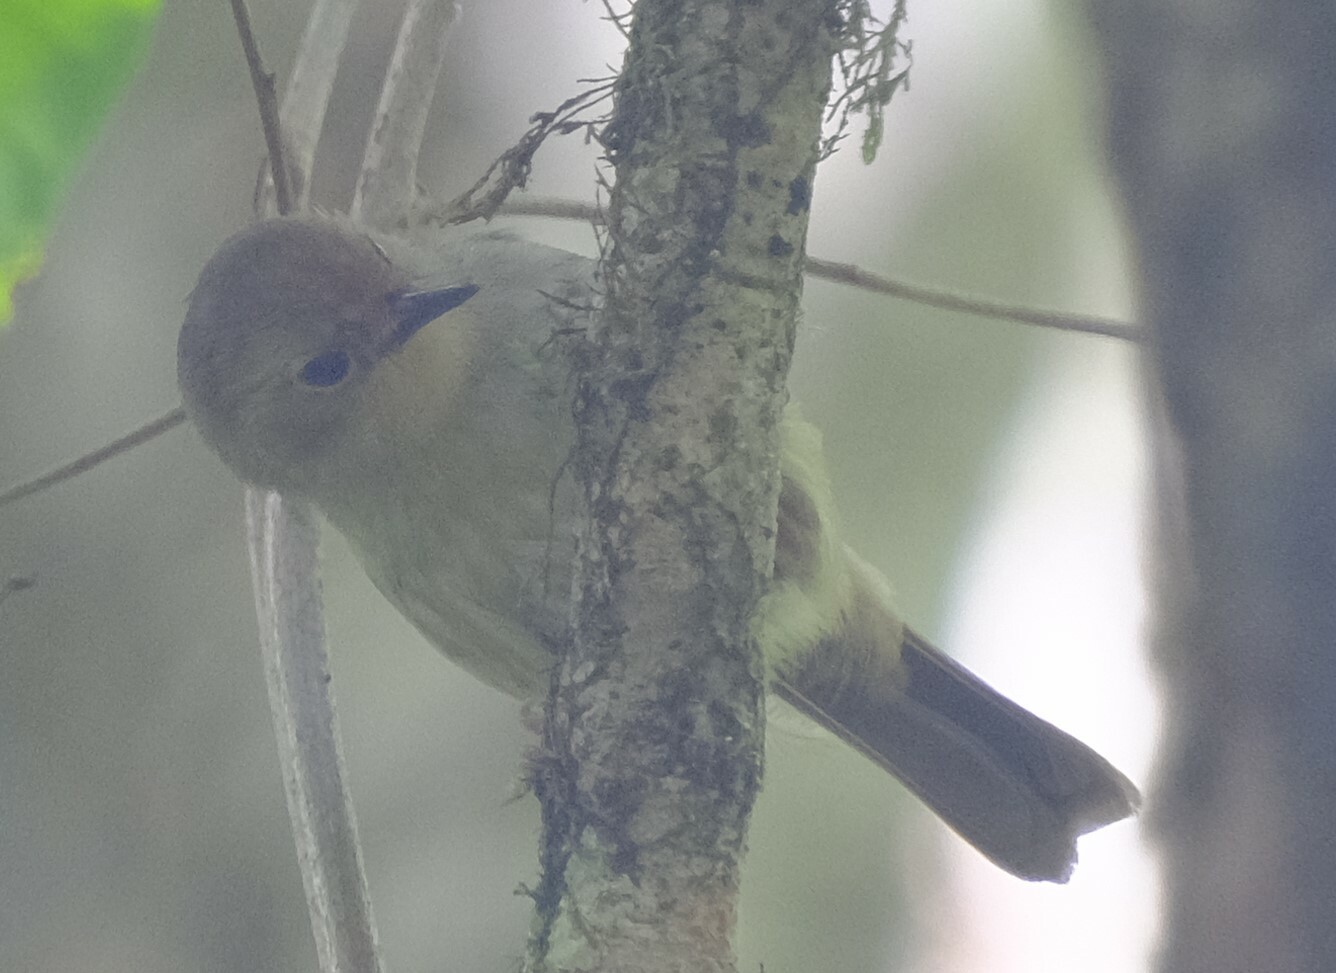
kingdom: Animalia
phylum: Chordata
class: Aves
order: Passeriformes
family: Acanthizidae
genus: Sericornis
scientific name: Sericornis magnirostra
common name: Large-billed scrubwren
